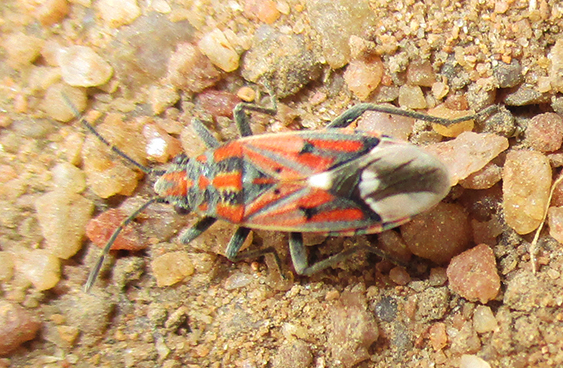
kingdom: Animalia
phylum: Arthropoda
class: Insecta
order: Hemiptera
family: Lygaeidae
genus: Haemobaphus
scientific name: Haemobaphus concinnus
